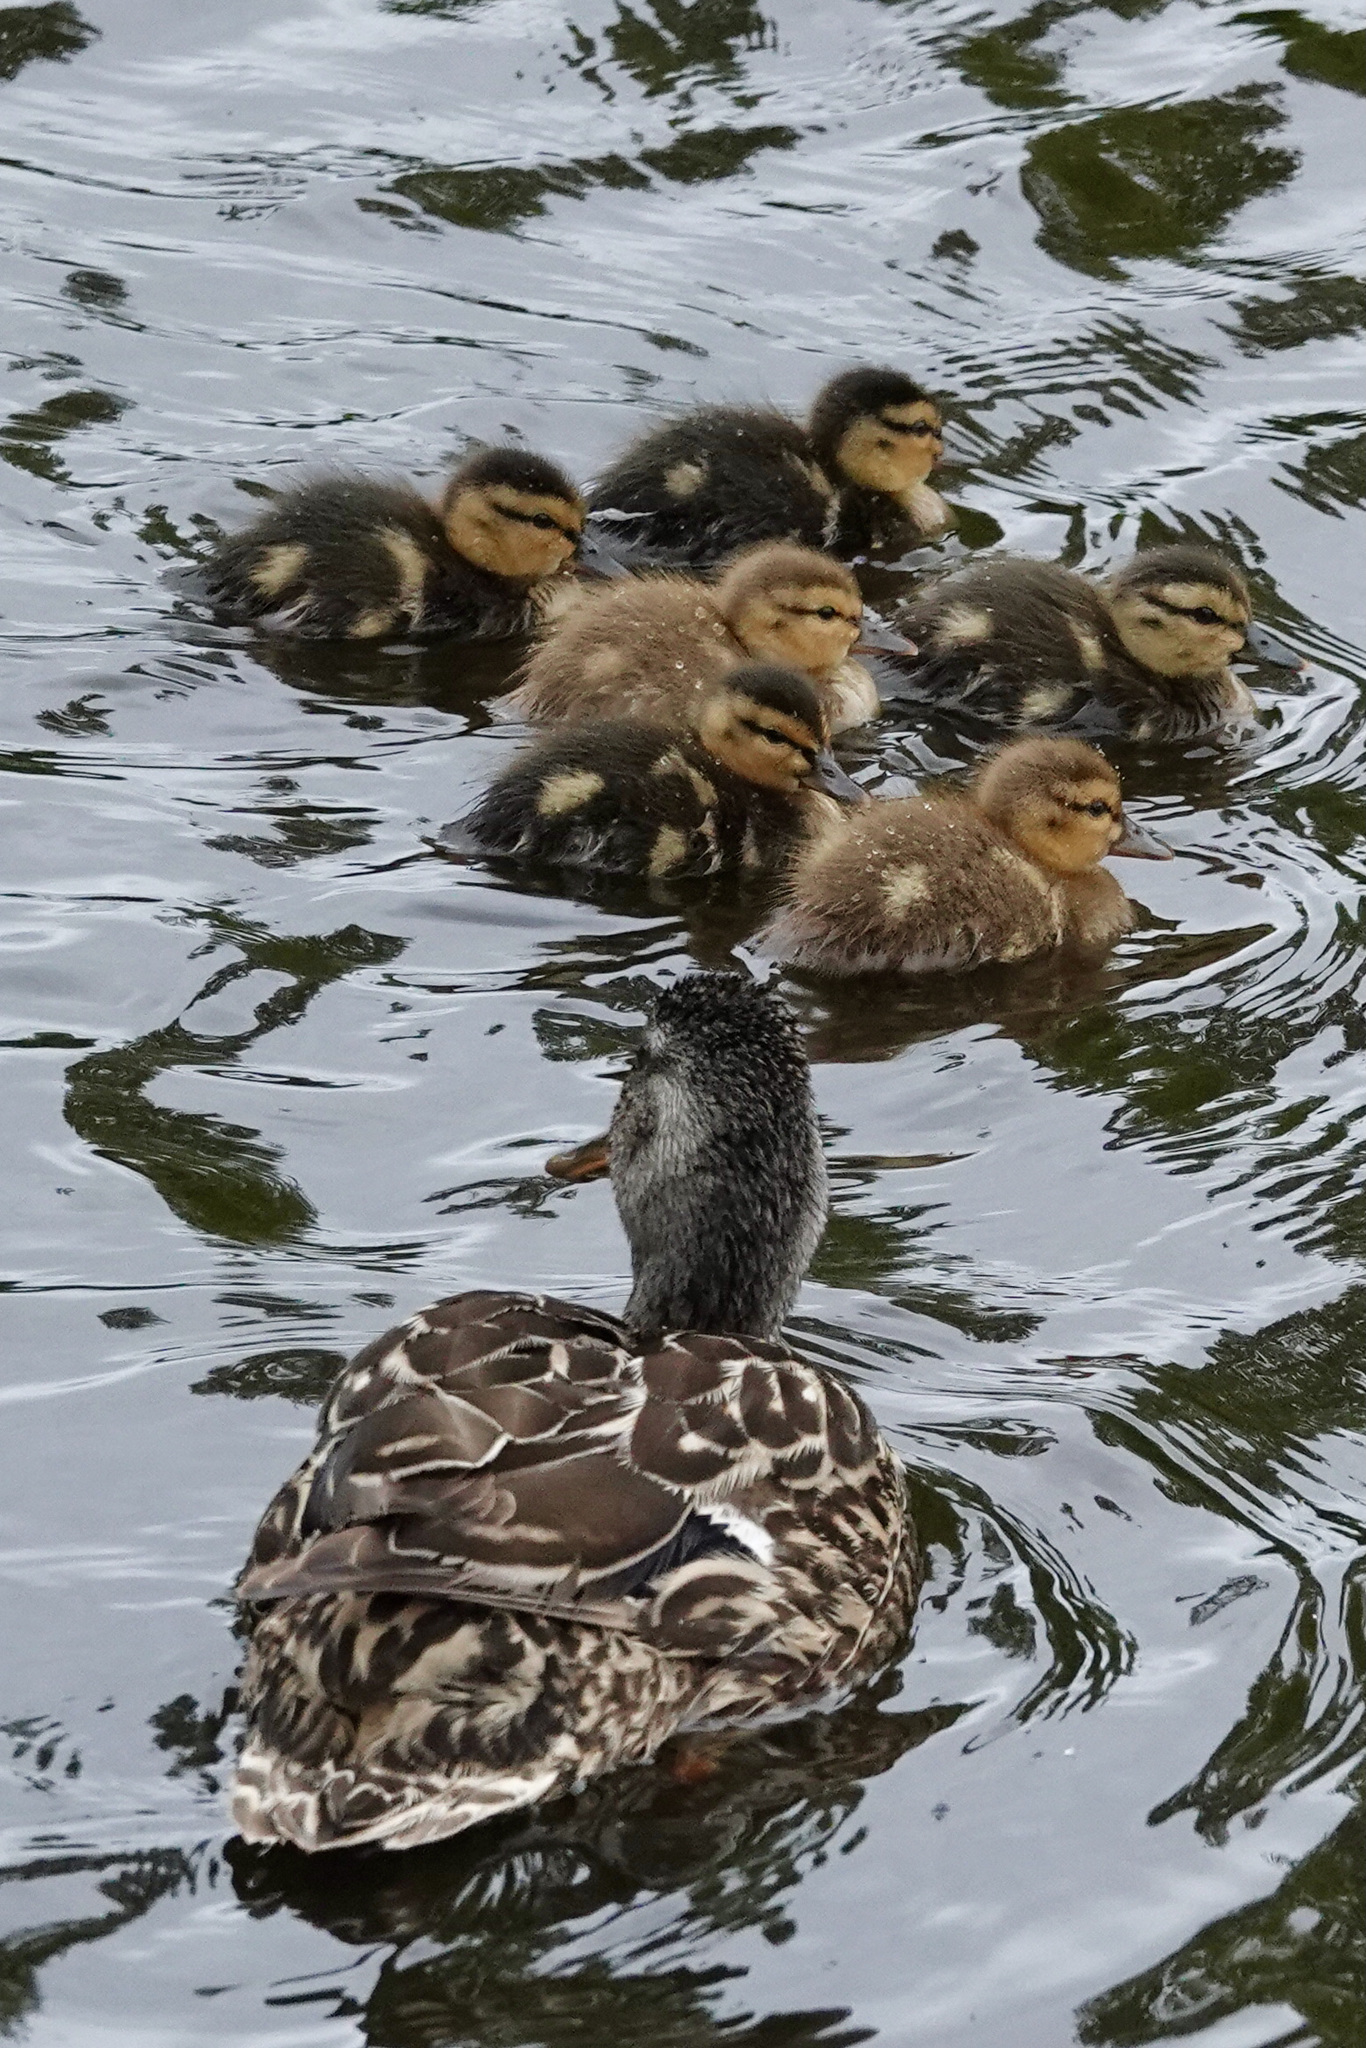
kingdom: Animalia
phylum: Chordata
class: Aves
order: Anseriformes
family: Anatidae
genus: Anas
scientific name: Anas platyrhynchos
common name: Mallard
